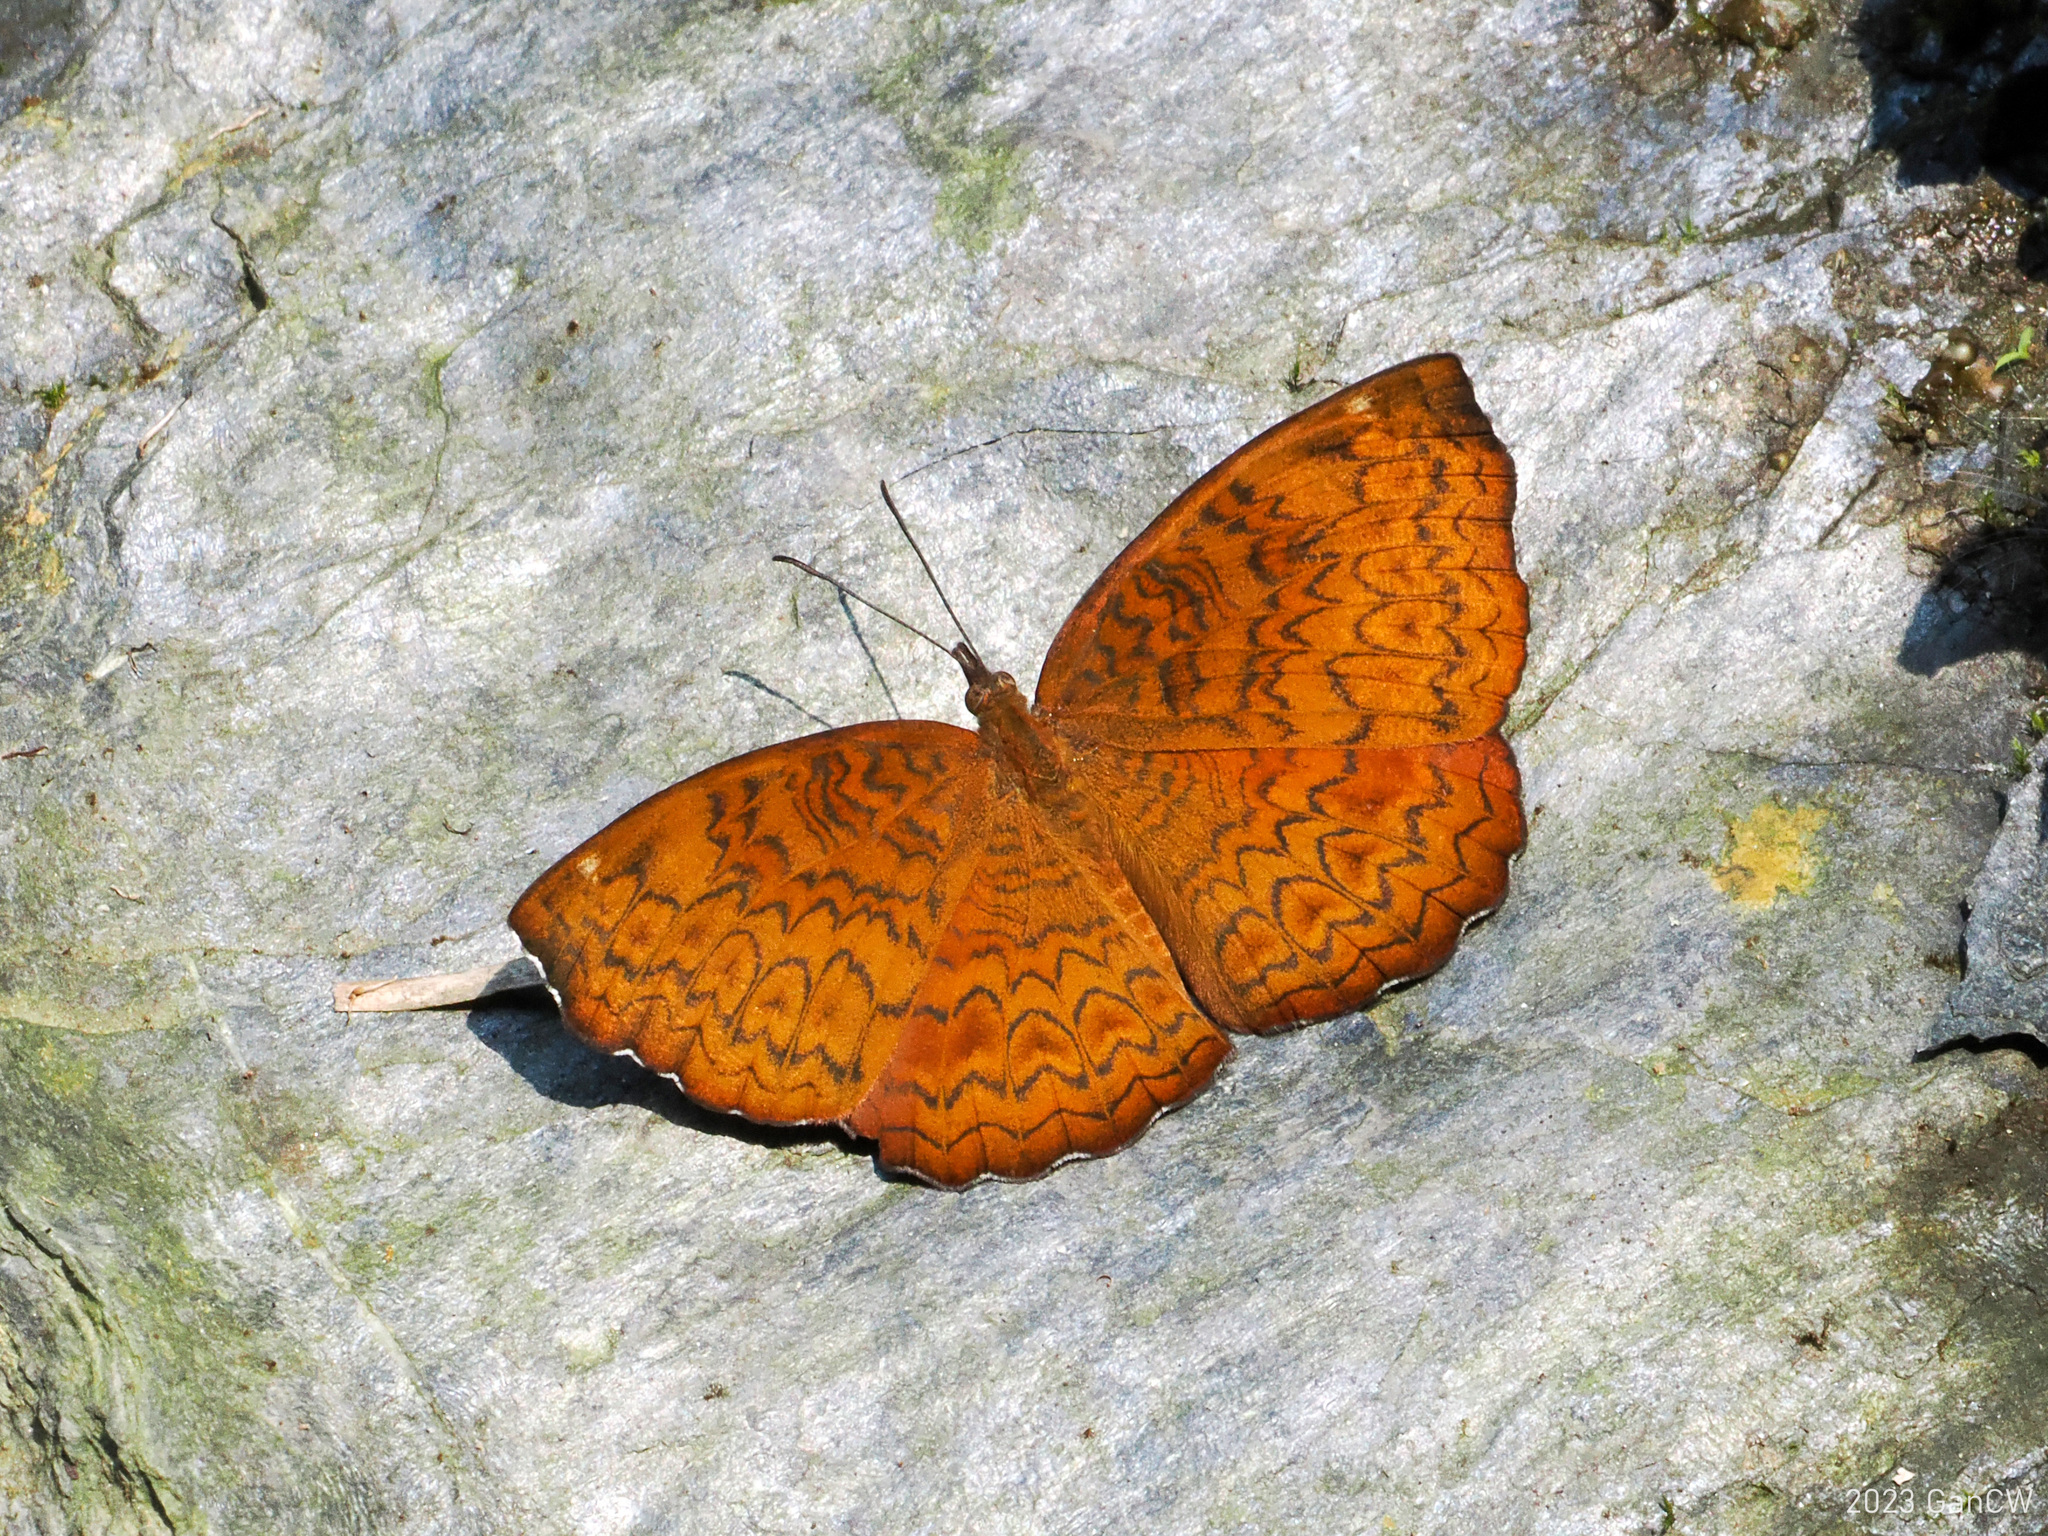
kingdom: Animalia
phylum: Arthropoda
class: Insecta
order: Lepidoptera
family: Nymphalidae
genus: Ariadne
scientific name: Ariadne merione
